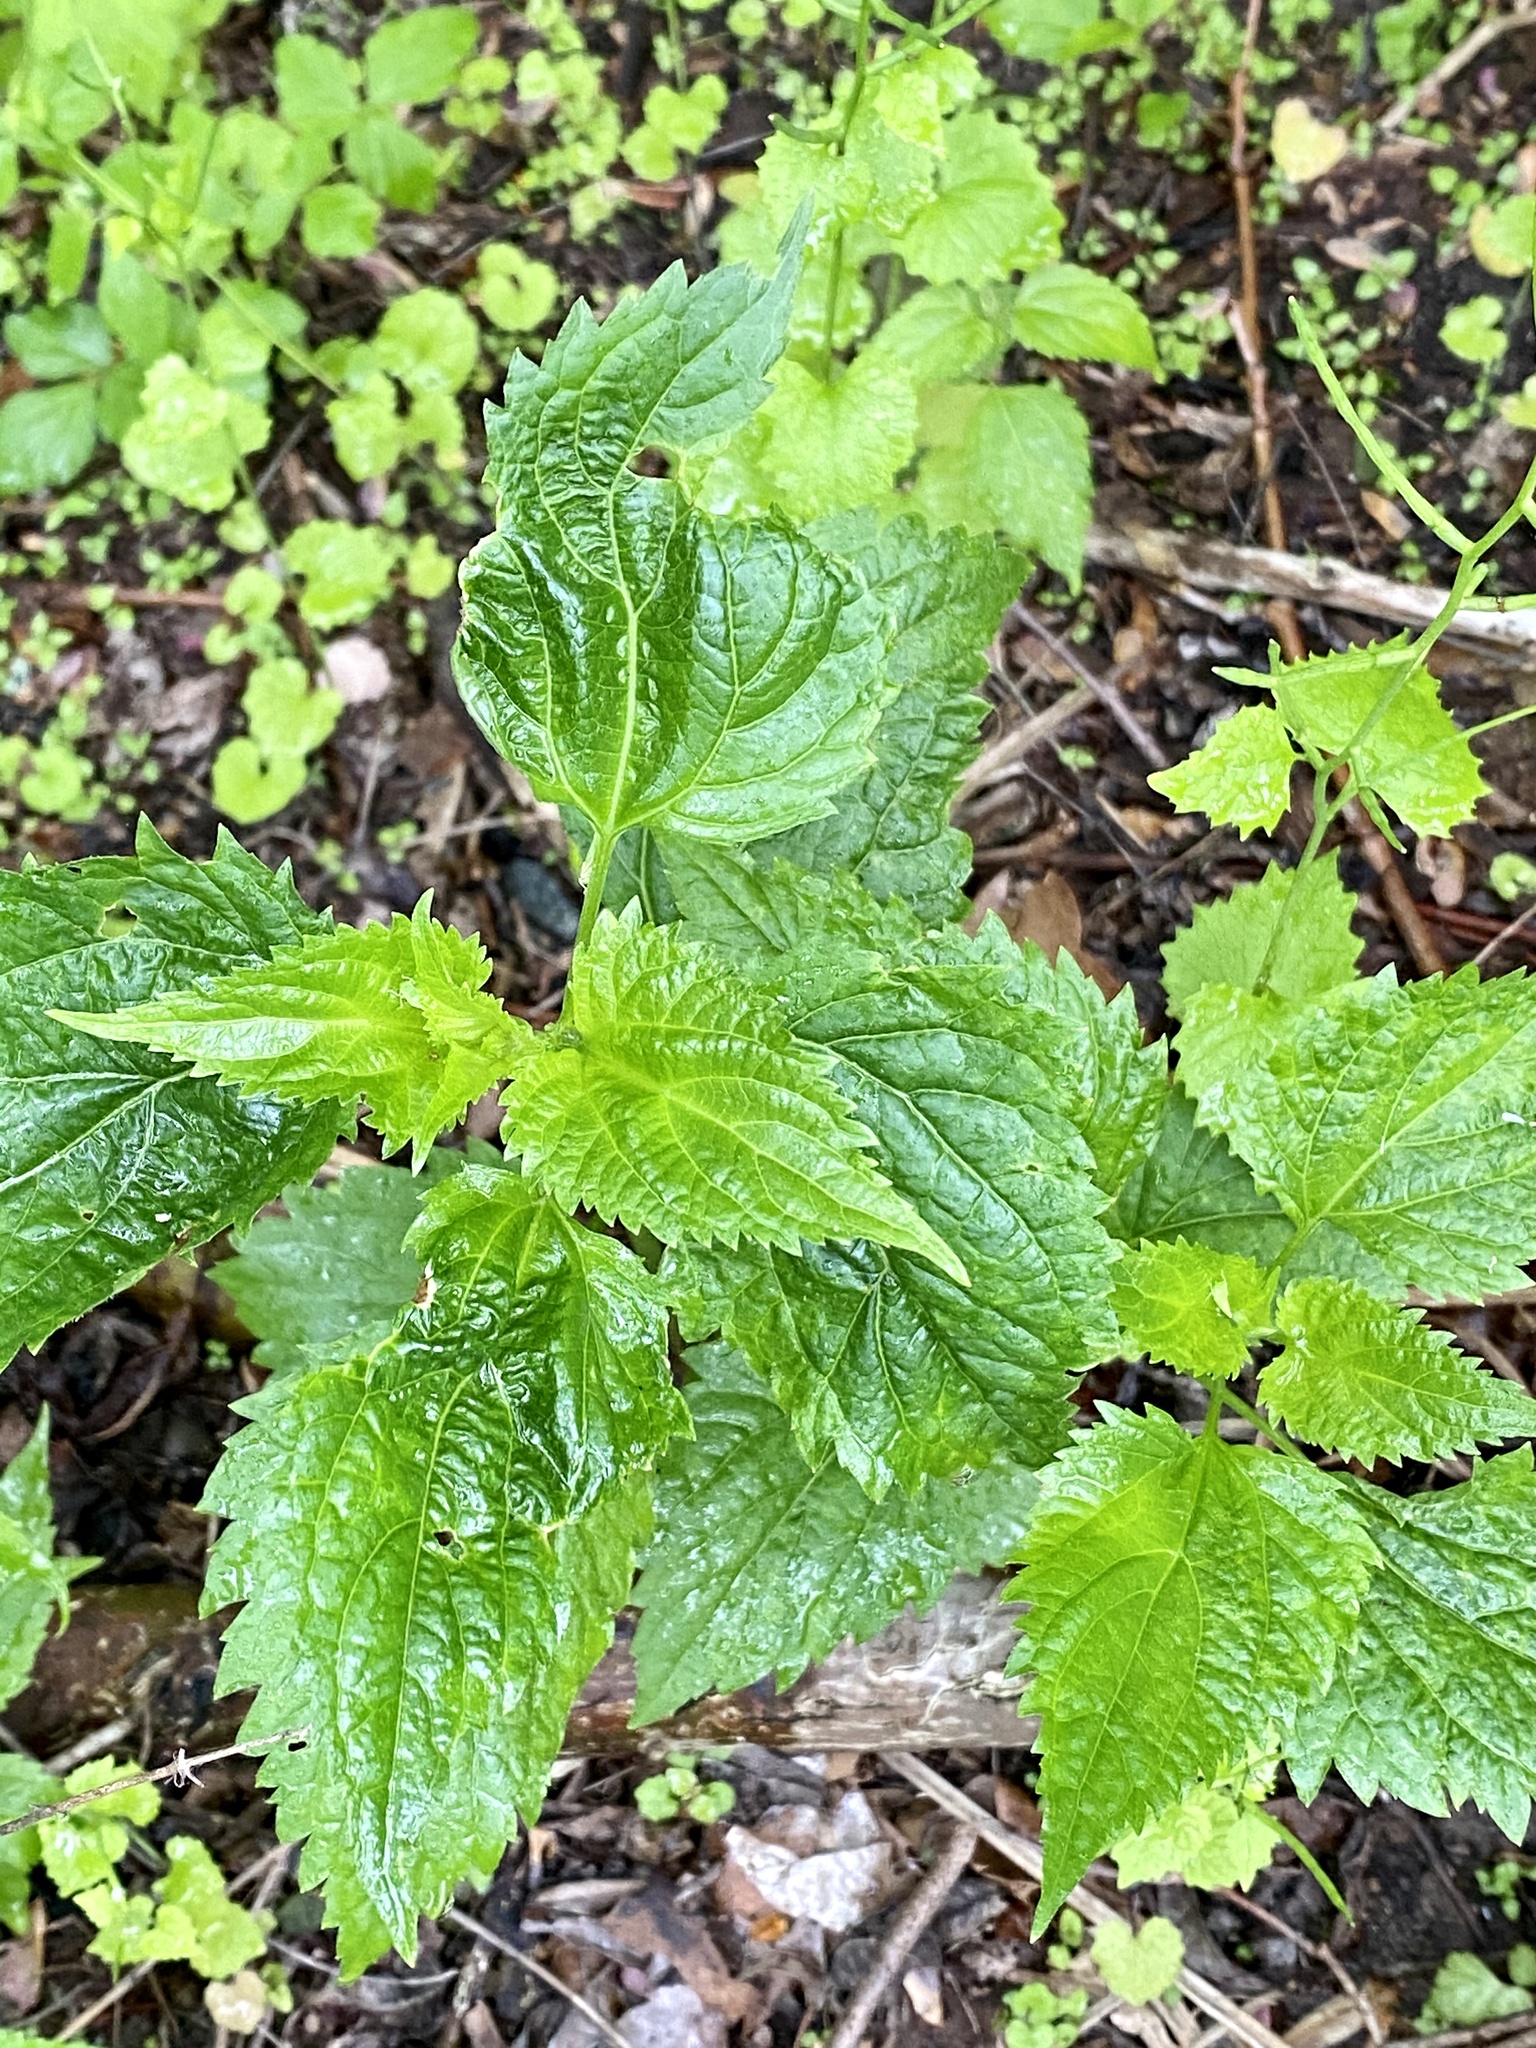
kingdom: Plantae
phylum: Tracheophyta
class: Magnoliopsida
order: Asterales
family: Asteraceae
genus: Ageratina
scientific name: Ageratina altissima
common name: White snakeroot
